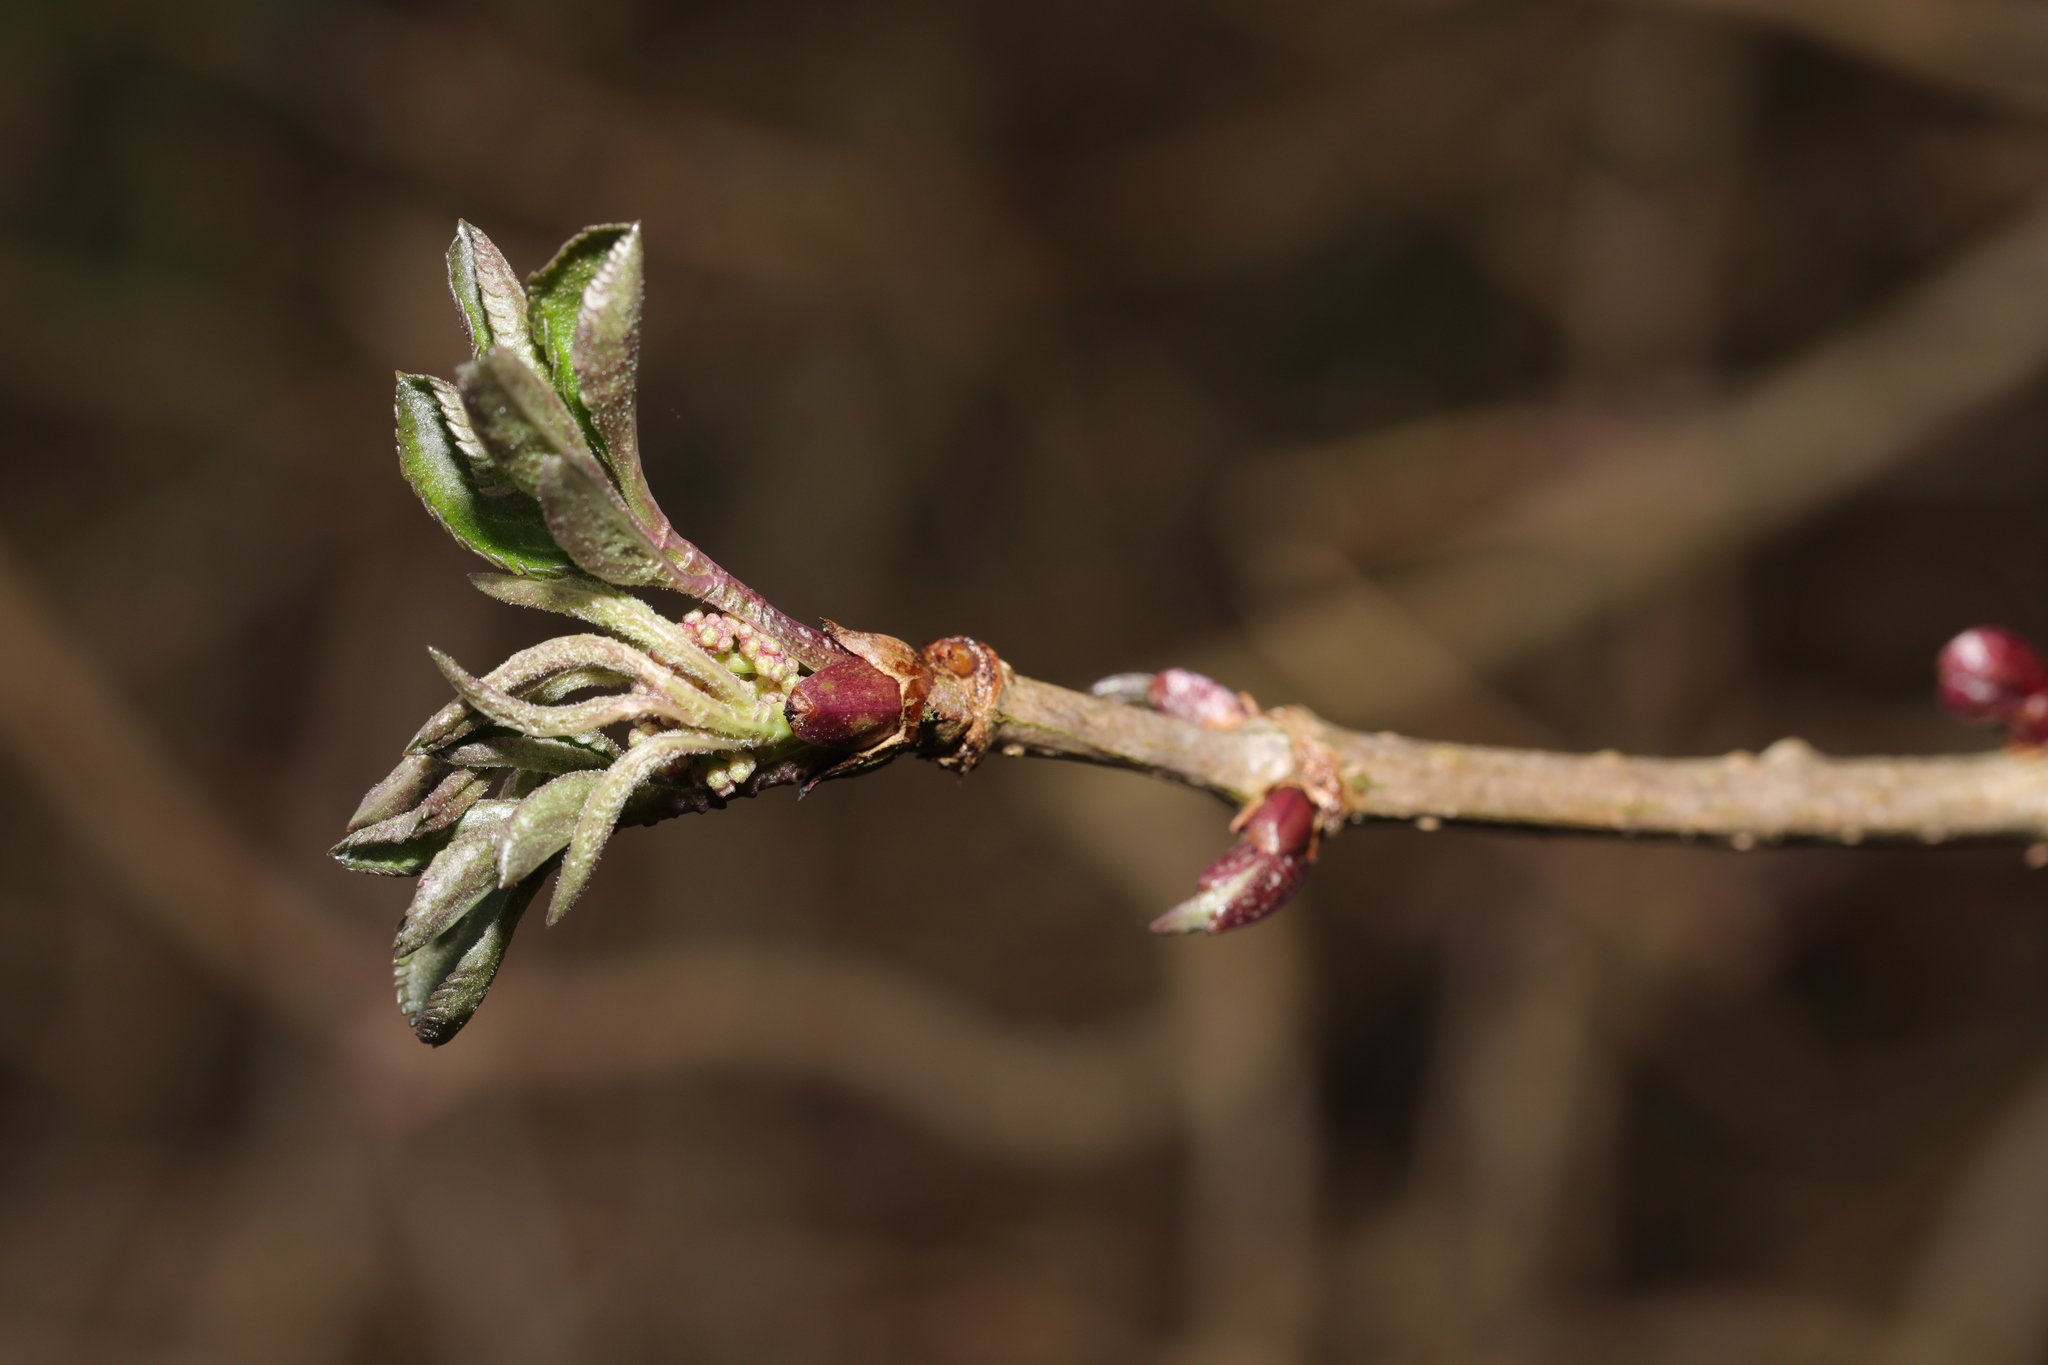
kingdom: Plantae
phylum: Tracheophyta
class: Magnoliopsida
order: Dipsacales
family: Viburnaceae
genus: Sambucus
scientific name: Sambucus nigra
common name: Elder
